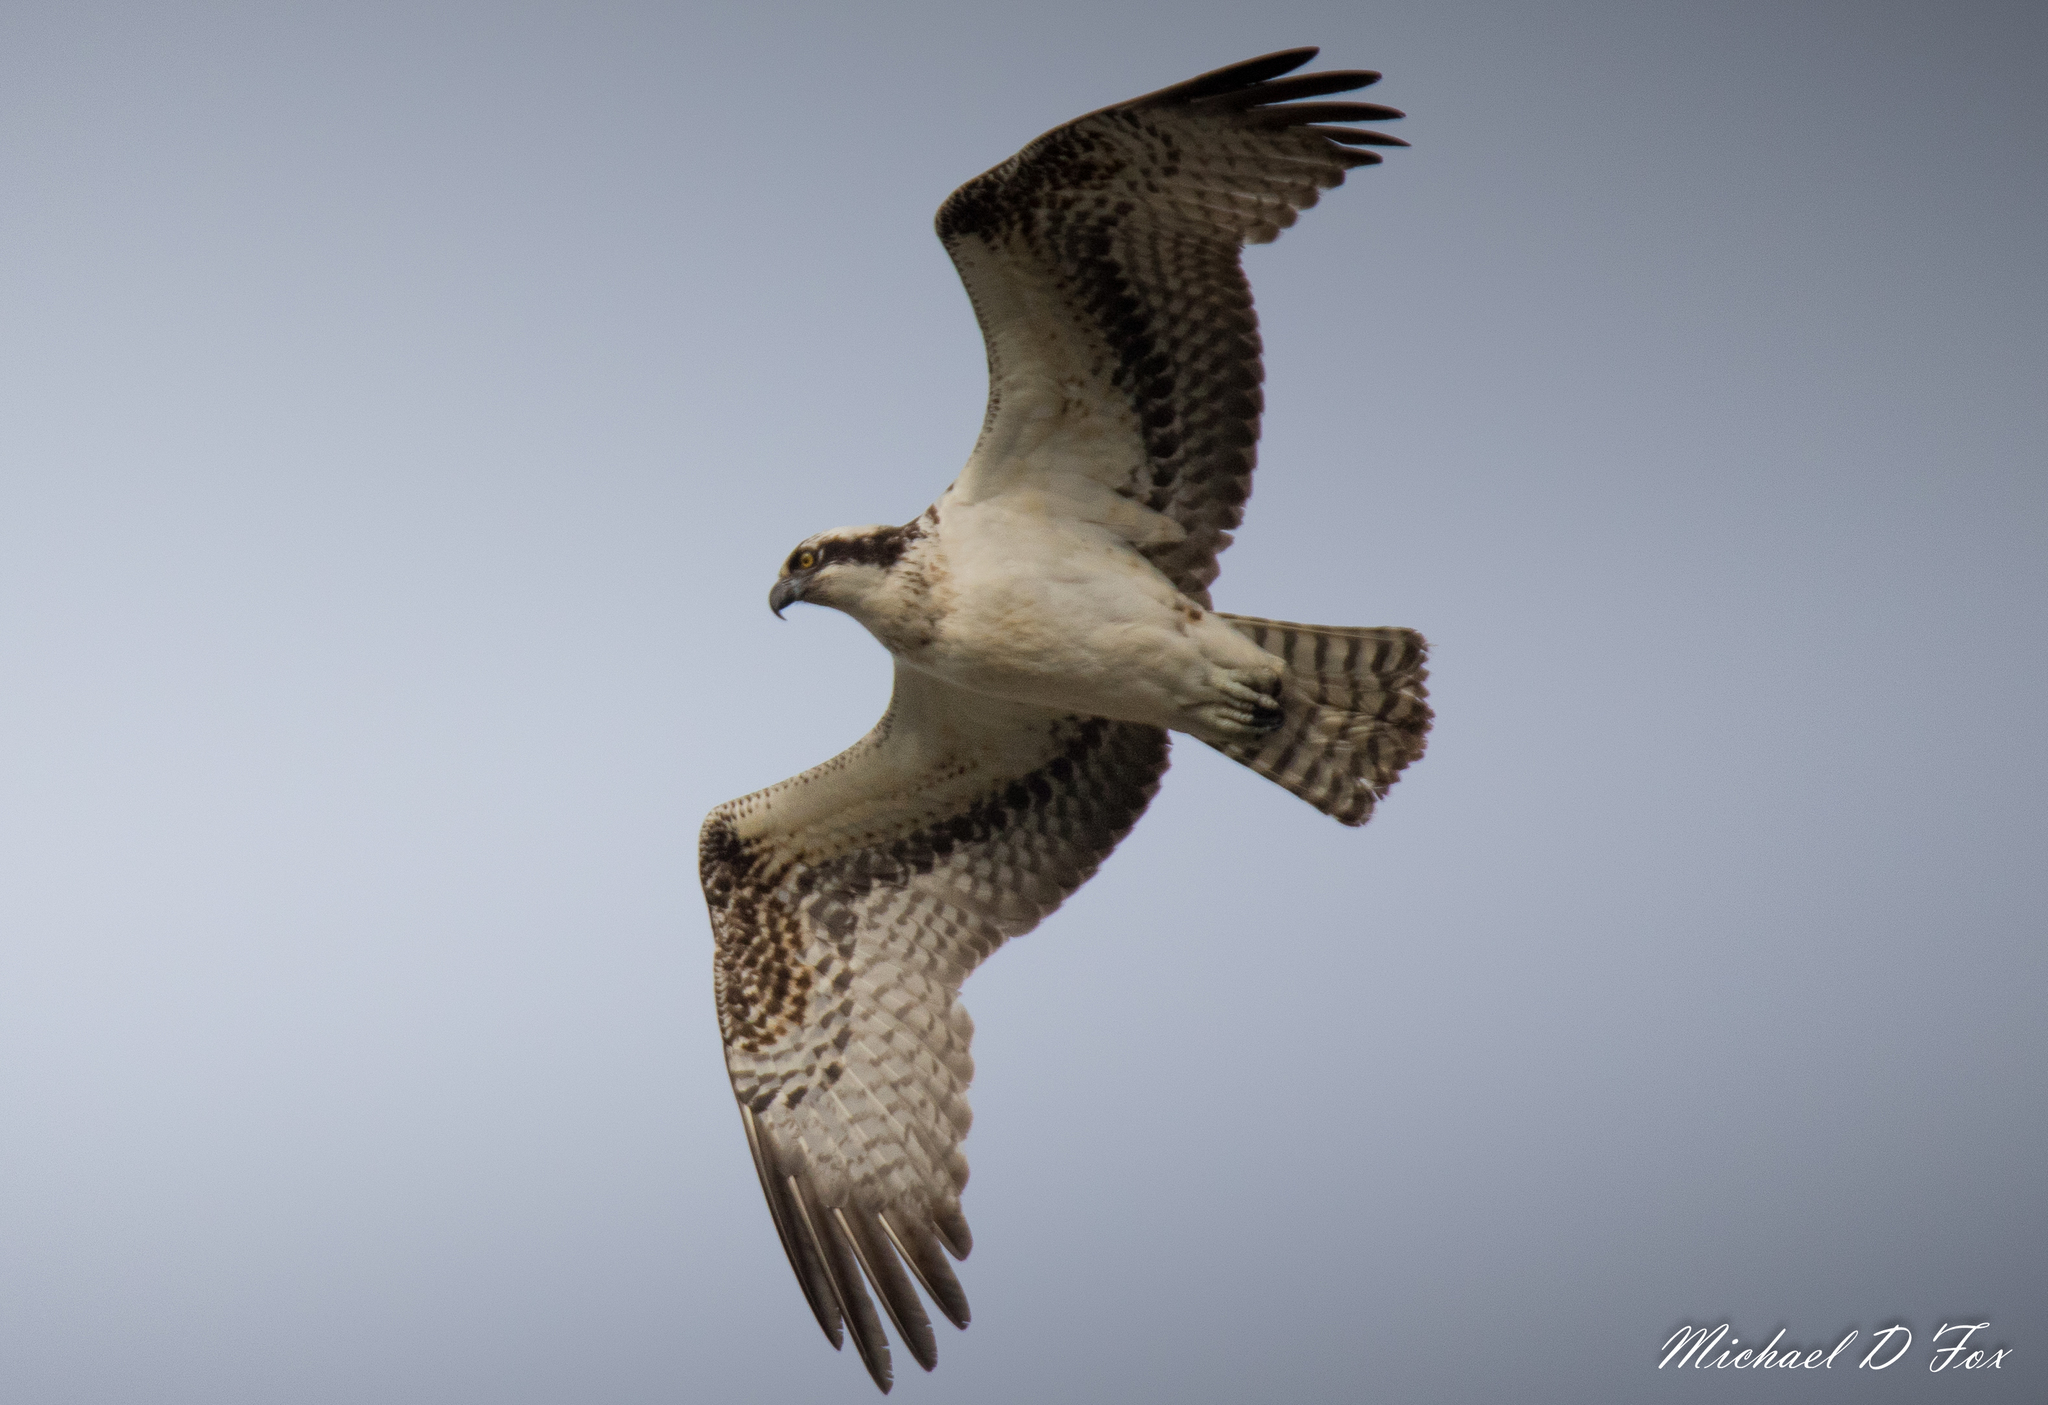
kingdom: Animalia
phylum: Chordata
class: Aves
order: Accipitriformes
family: Pandionidae
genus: Pandion
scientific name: Pandion haliaetus
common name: Osprey
